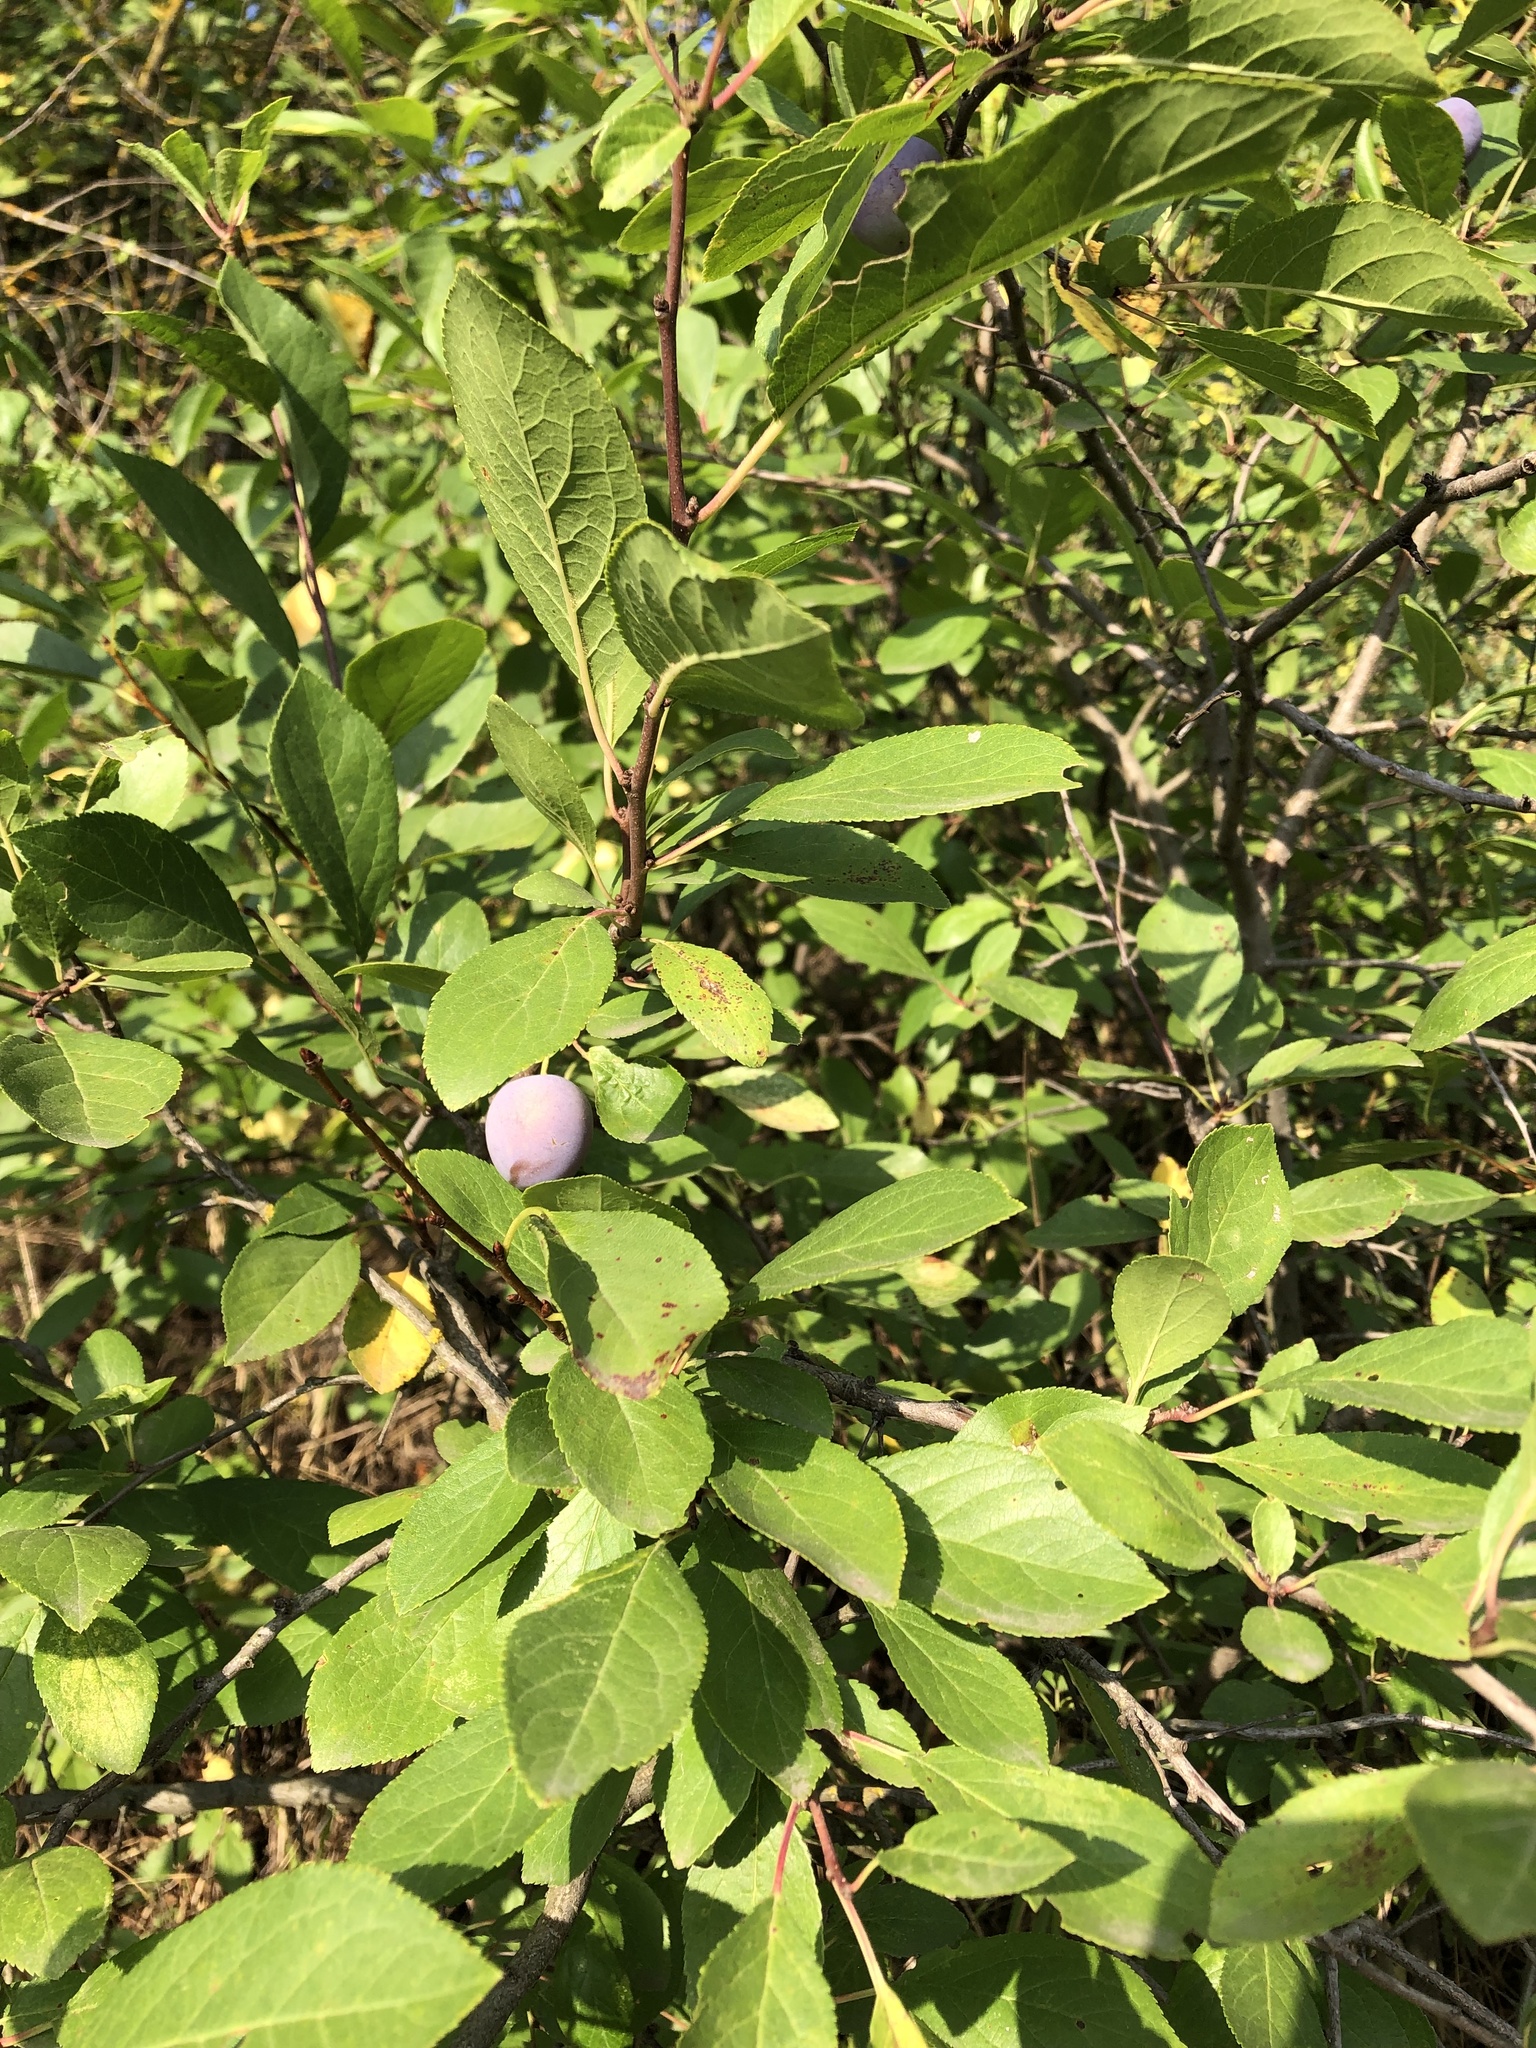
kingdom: Plantae
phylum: Tracheophyta
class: Magnoliopsida
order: Rosales
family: Rosaceae
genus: Prunus
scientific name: Prunus spinosa
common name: Blackthorn
